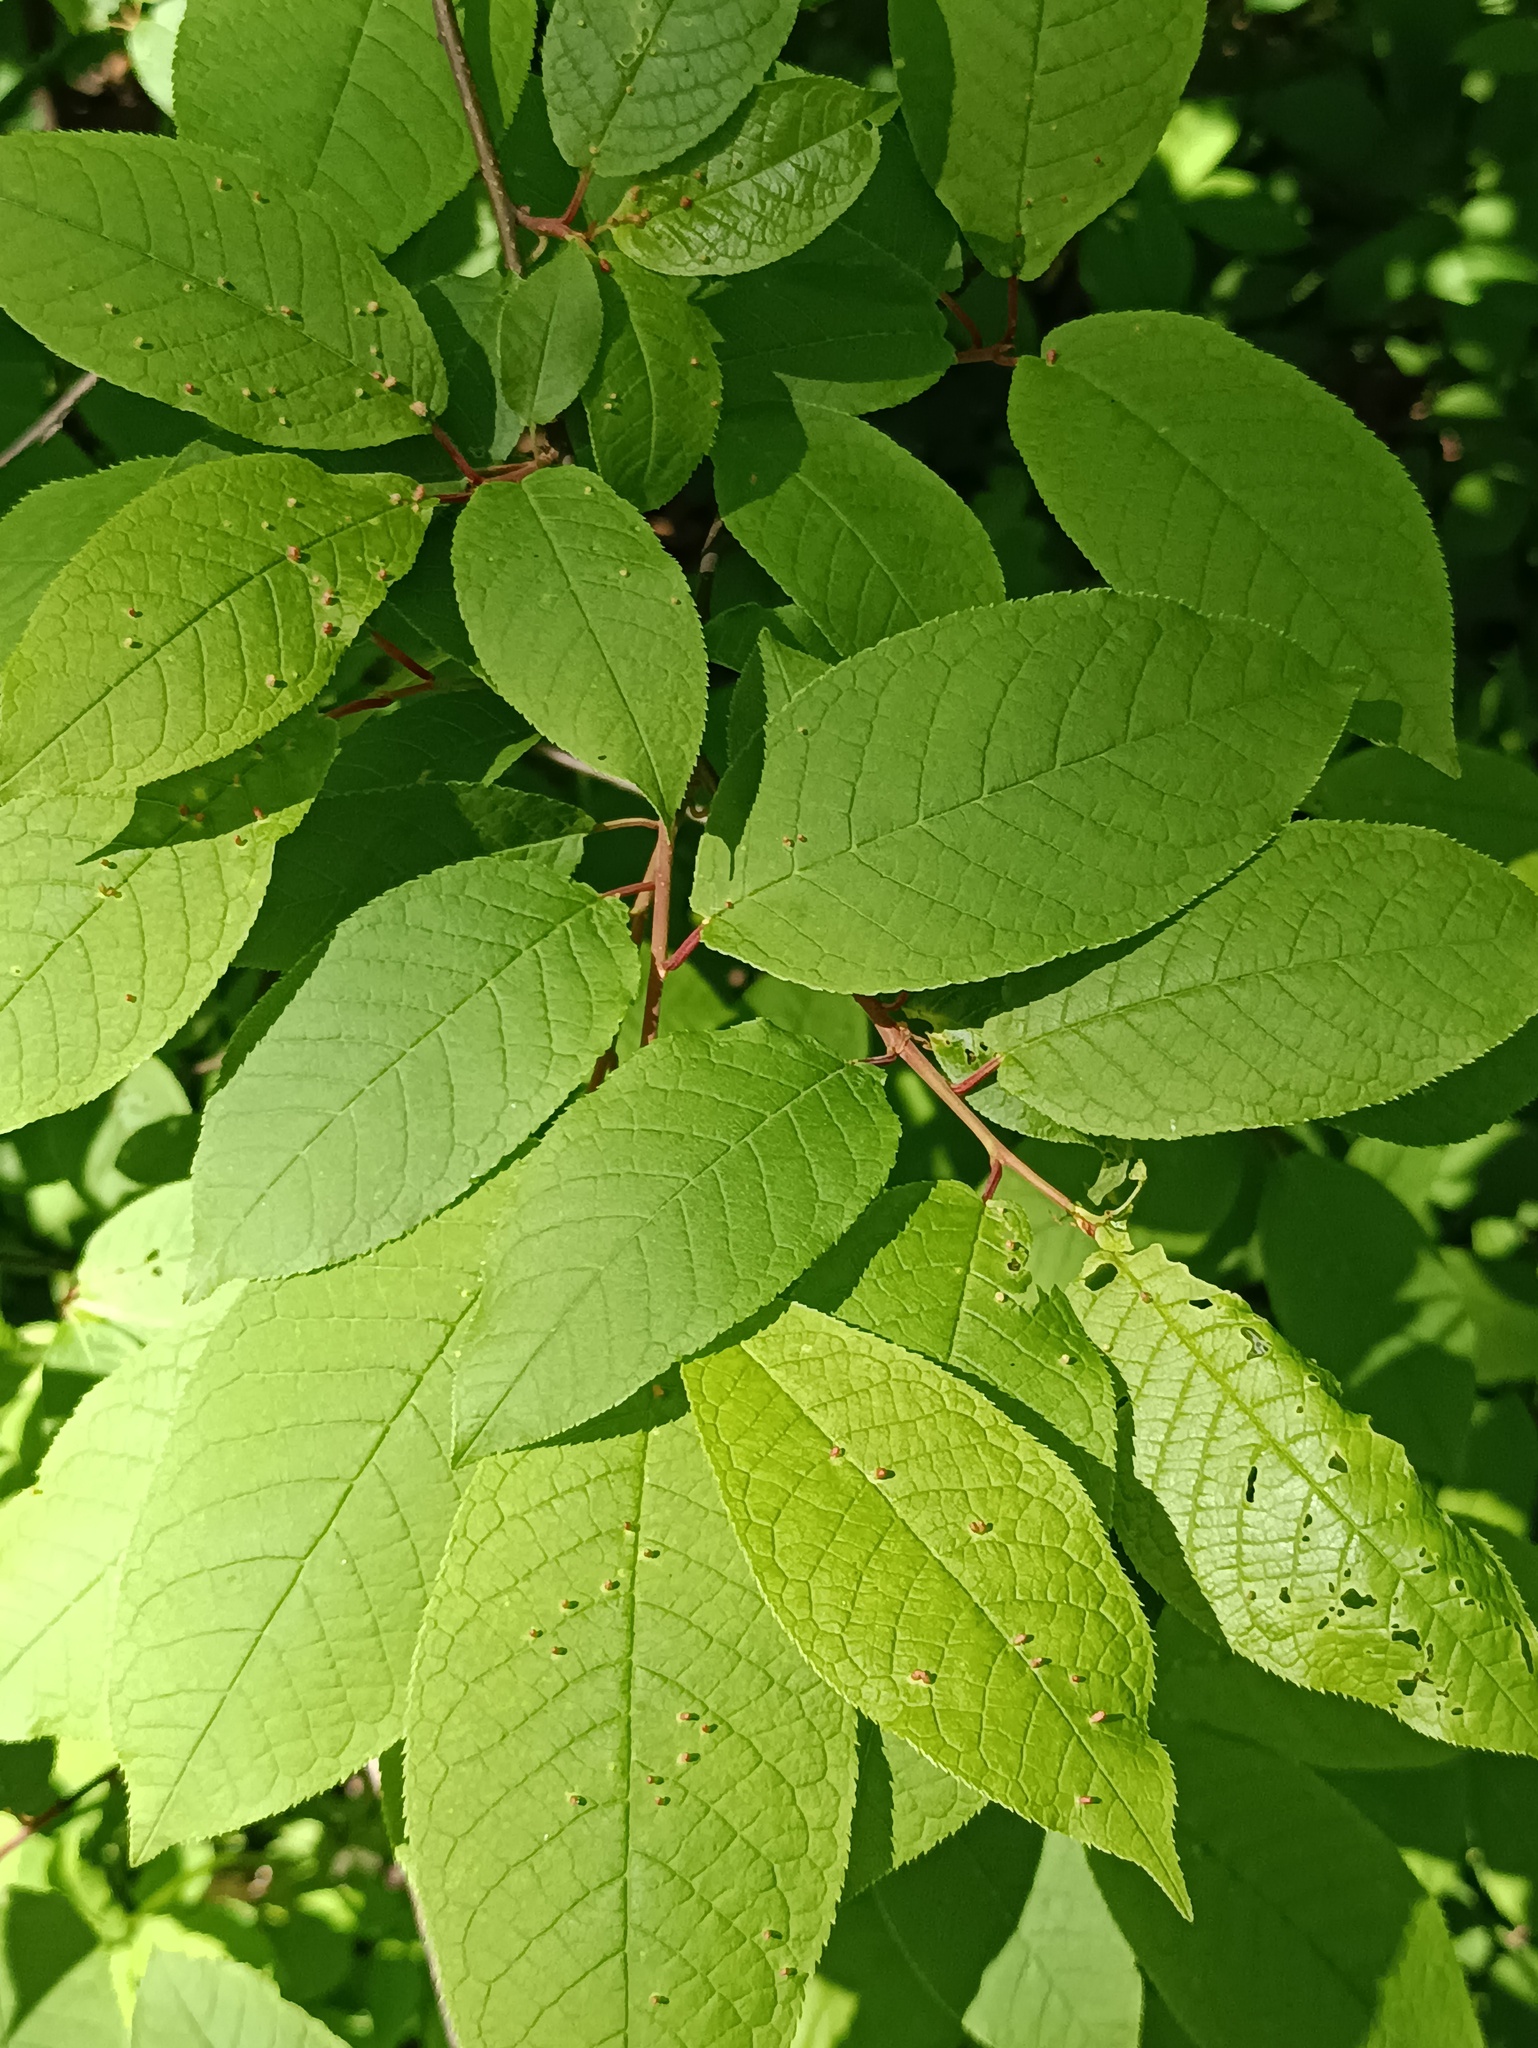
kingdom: Plantae
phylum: Tracheophyta
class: Magnoliopsida
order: Rosales
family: Rosaceae
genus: Prunus
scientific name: Prunus padus
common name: Bird cherry
